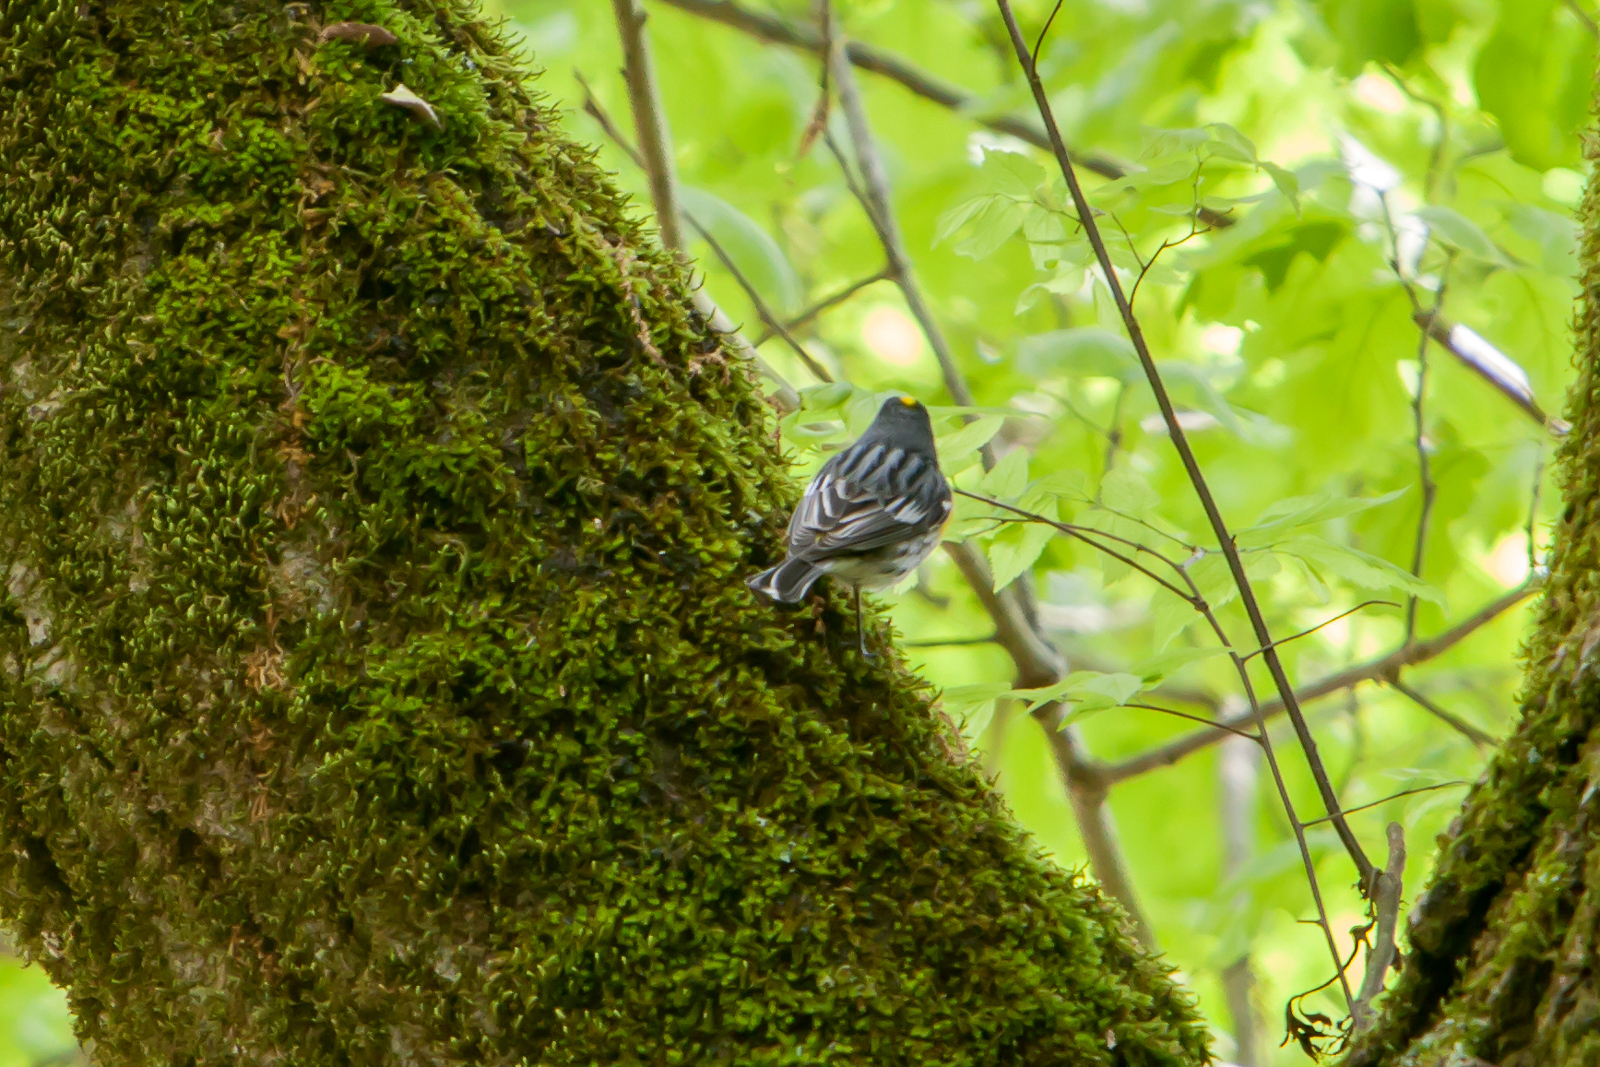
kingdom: Animalia
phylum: Chordata
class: Aves
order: Passeriformes
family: Parulidae
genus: Setophaga
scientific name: Setophaga coronata
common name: Myrtle warbler
